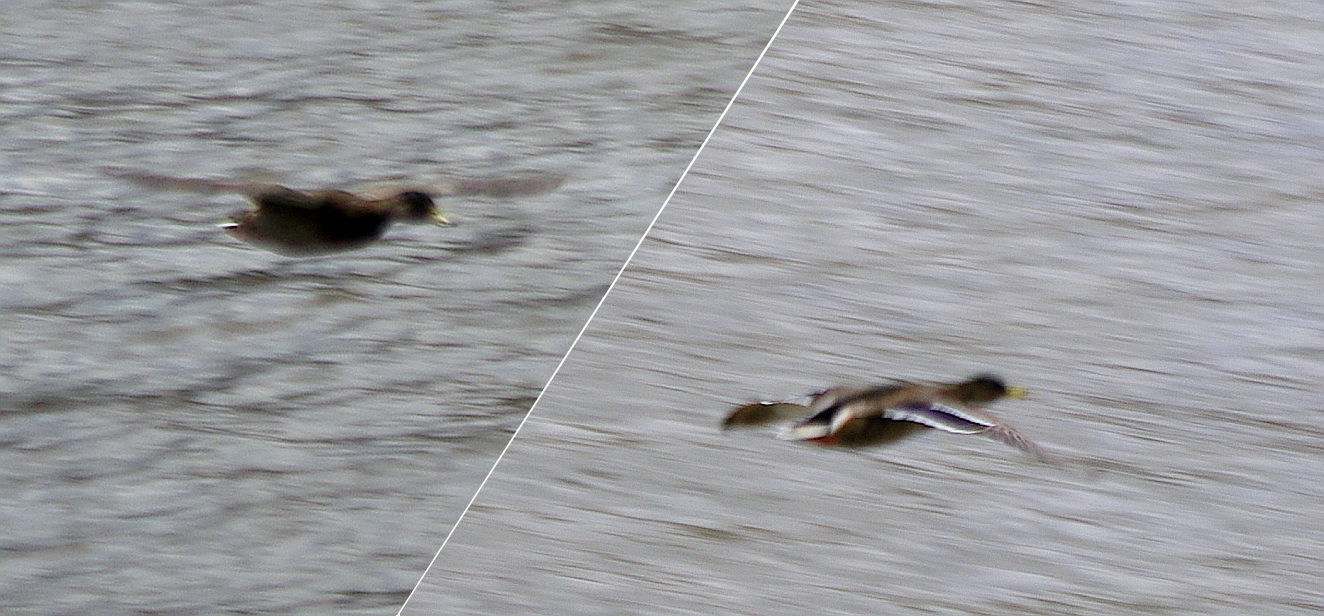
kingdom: Animalia
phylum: Chordata
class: Aves
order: Anseriformes
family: Anatidae
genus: Anas
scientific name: Anas platyrhynchos
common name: Mallard
